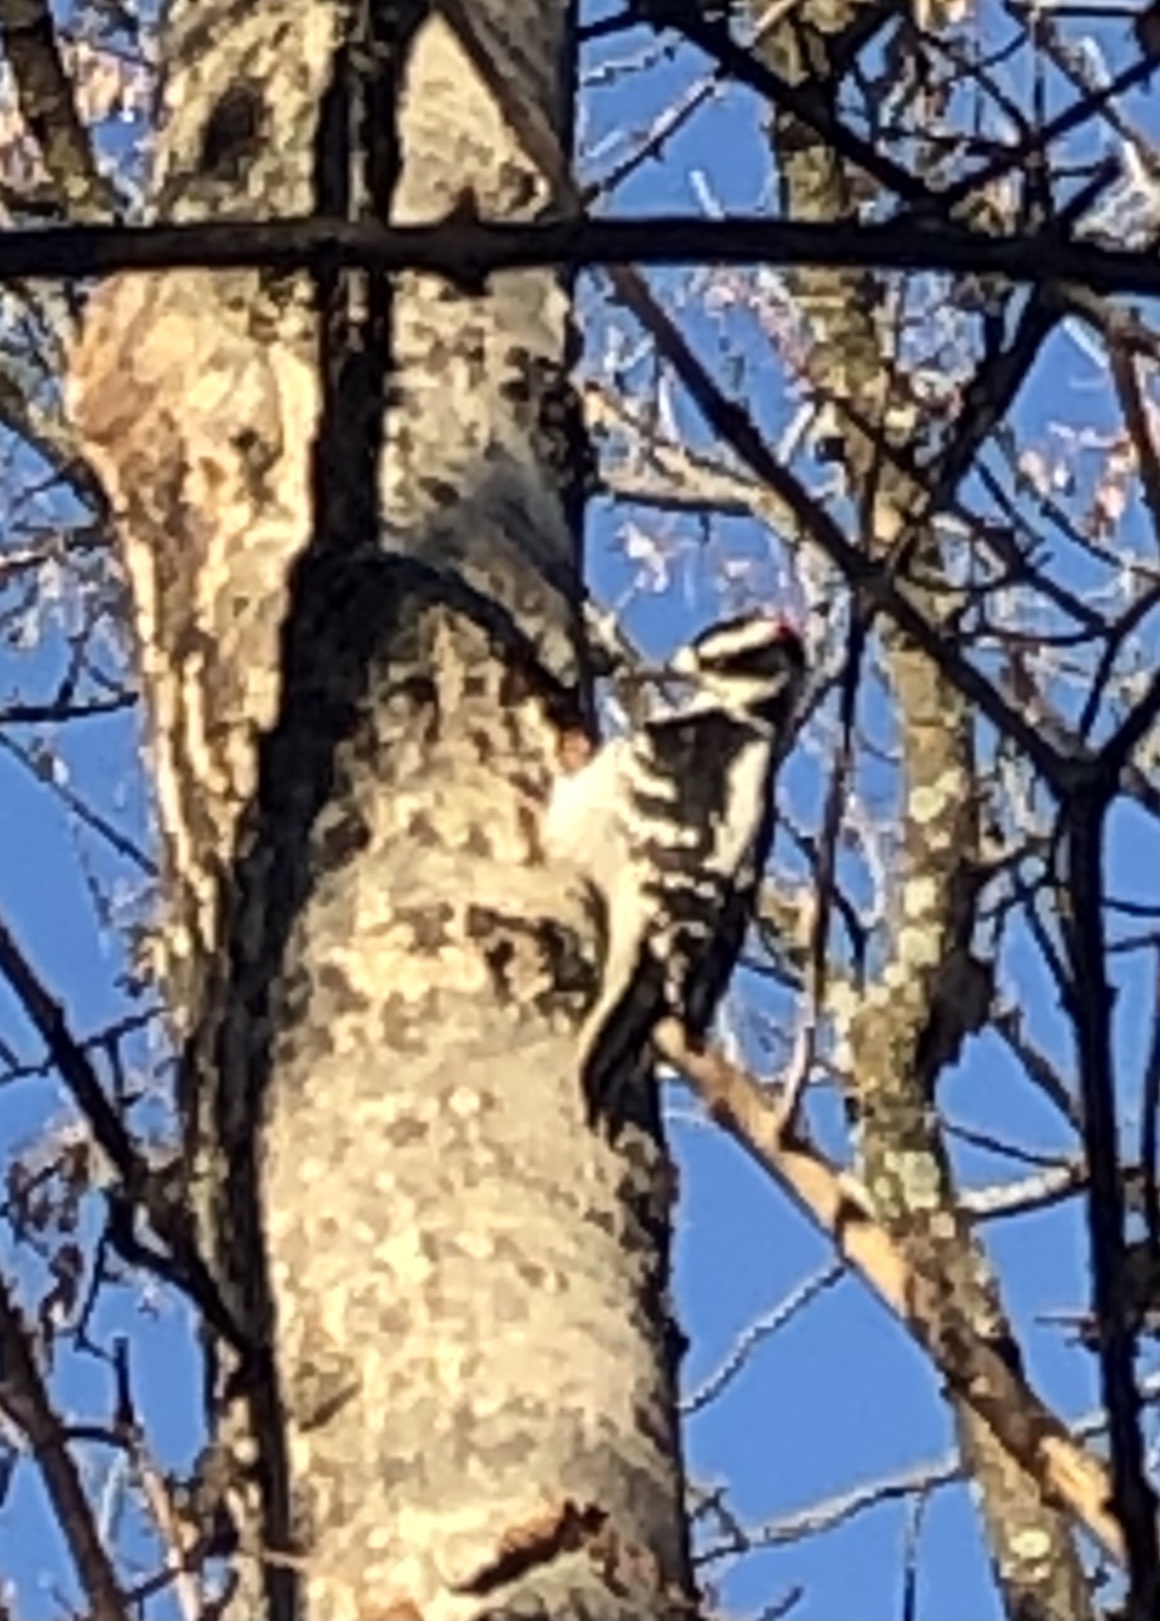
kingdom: Animalia
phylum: Chordata
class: Aves
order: Piciformes
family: Picidae
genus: Leuconotopicus
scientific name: Leuconotopicus villosus
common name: Hairy woodpecker
